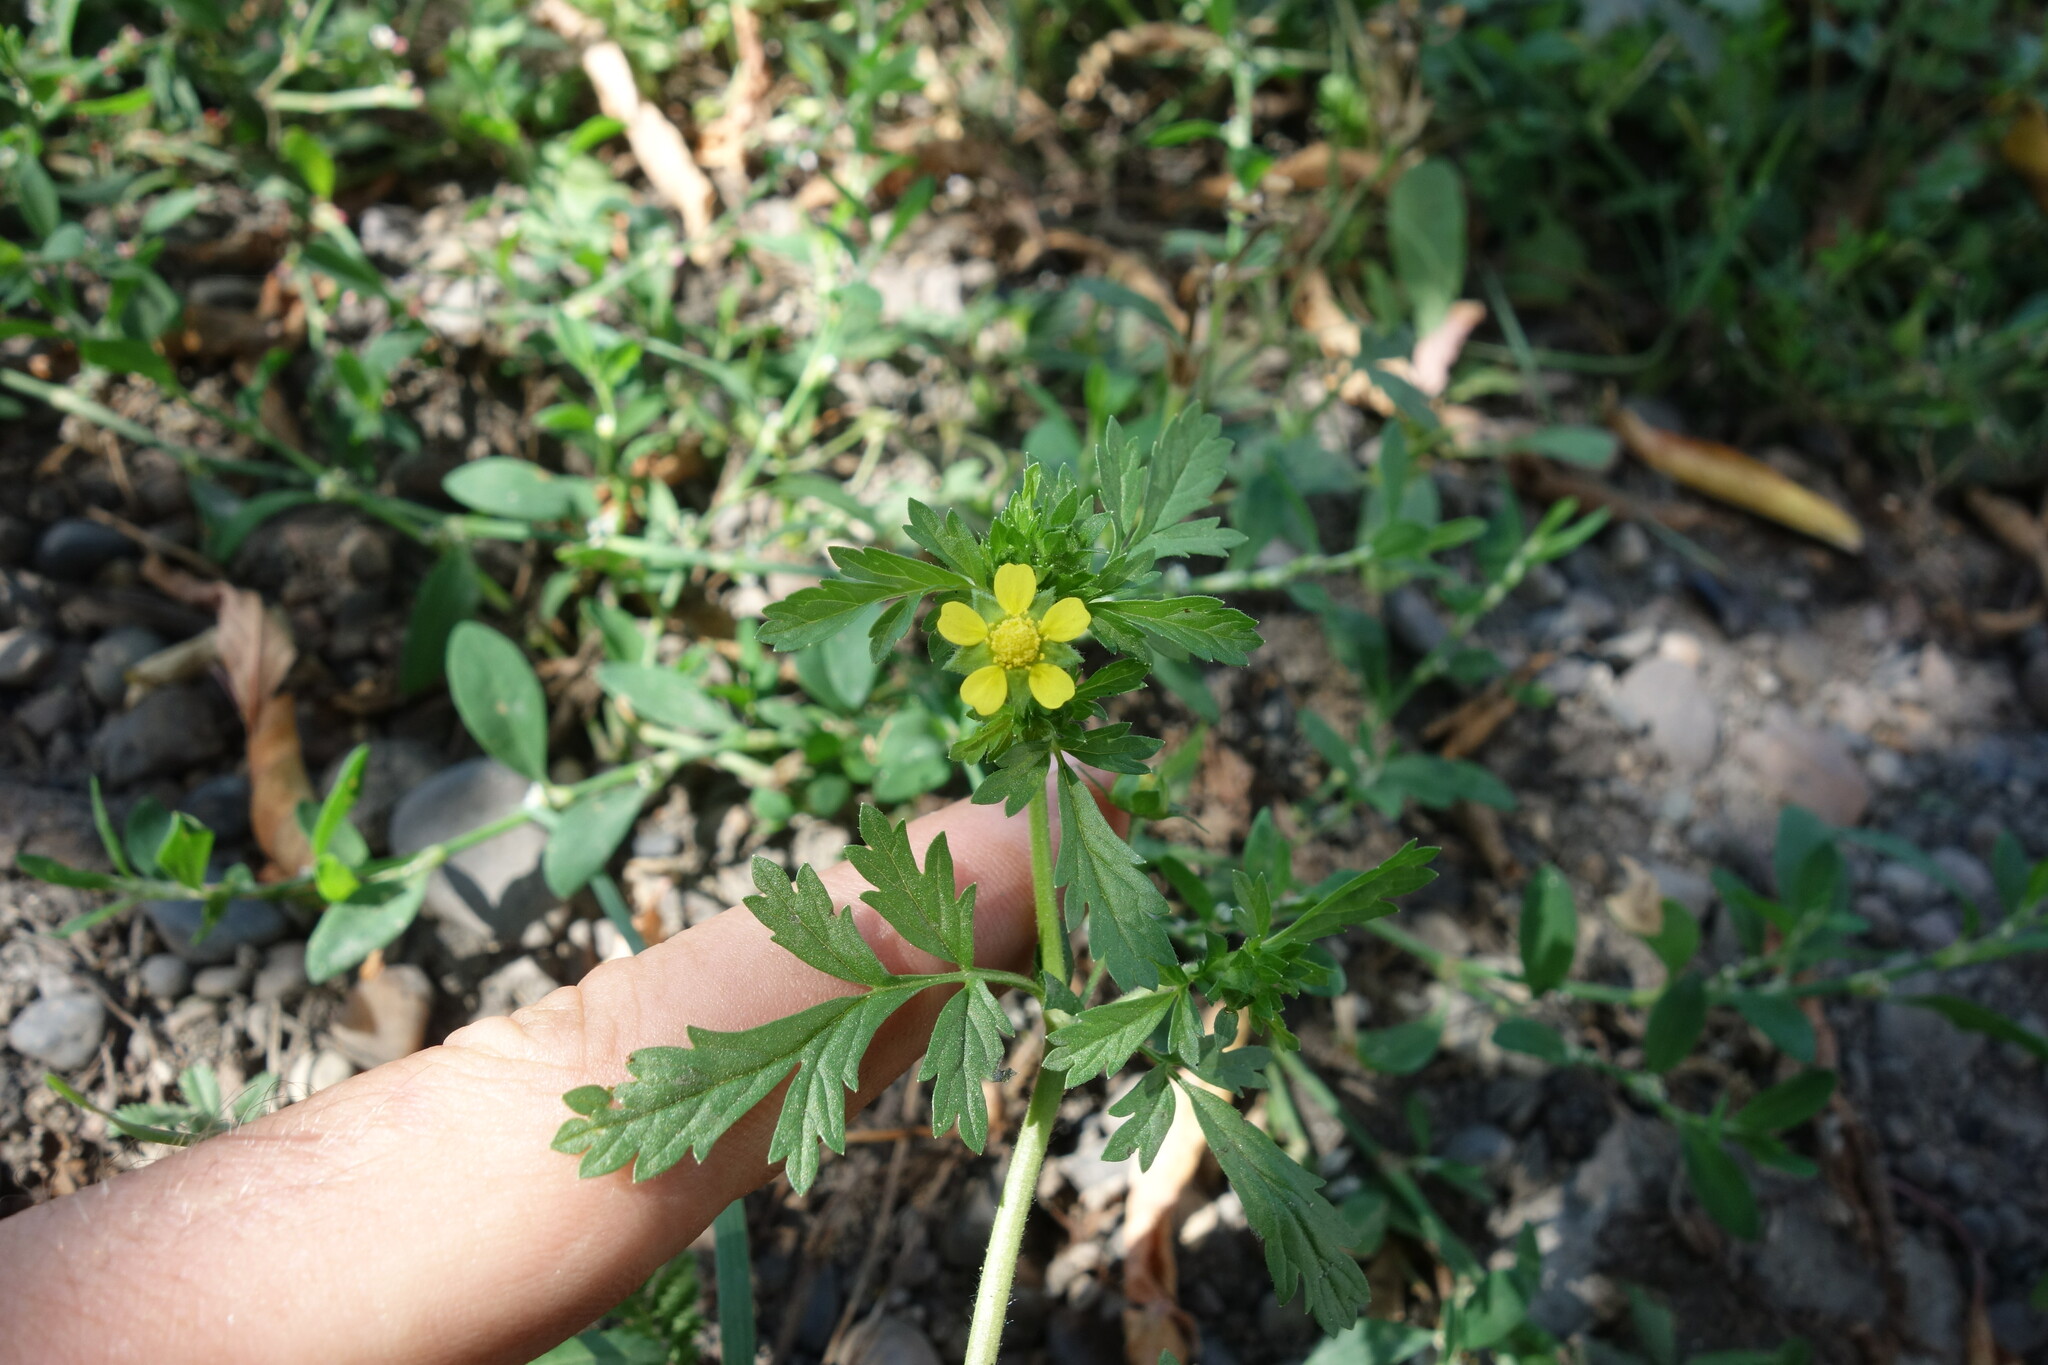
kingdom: Plantae
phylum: Tracheophyta
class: Magnoliopsida
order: Rosales
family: Rosaceae
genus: Potentilla
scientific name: Potentilla supina
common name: Prostrate cinquefoil
